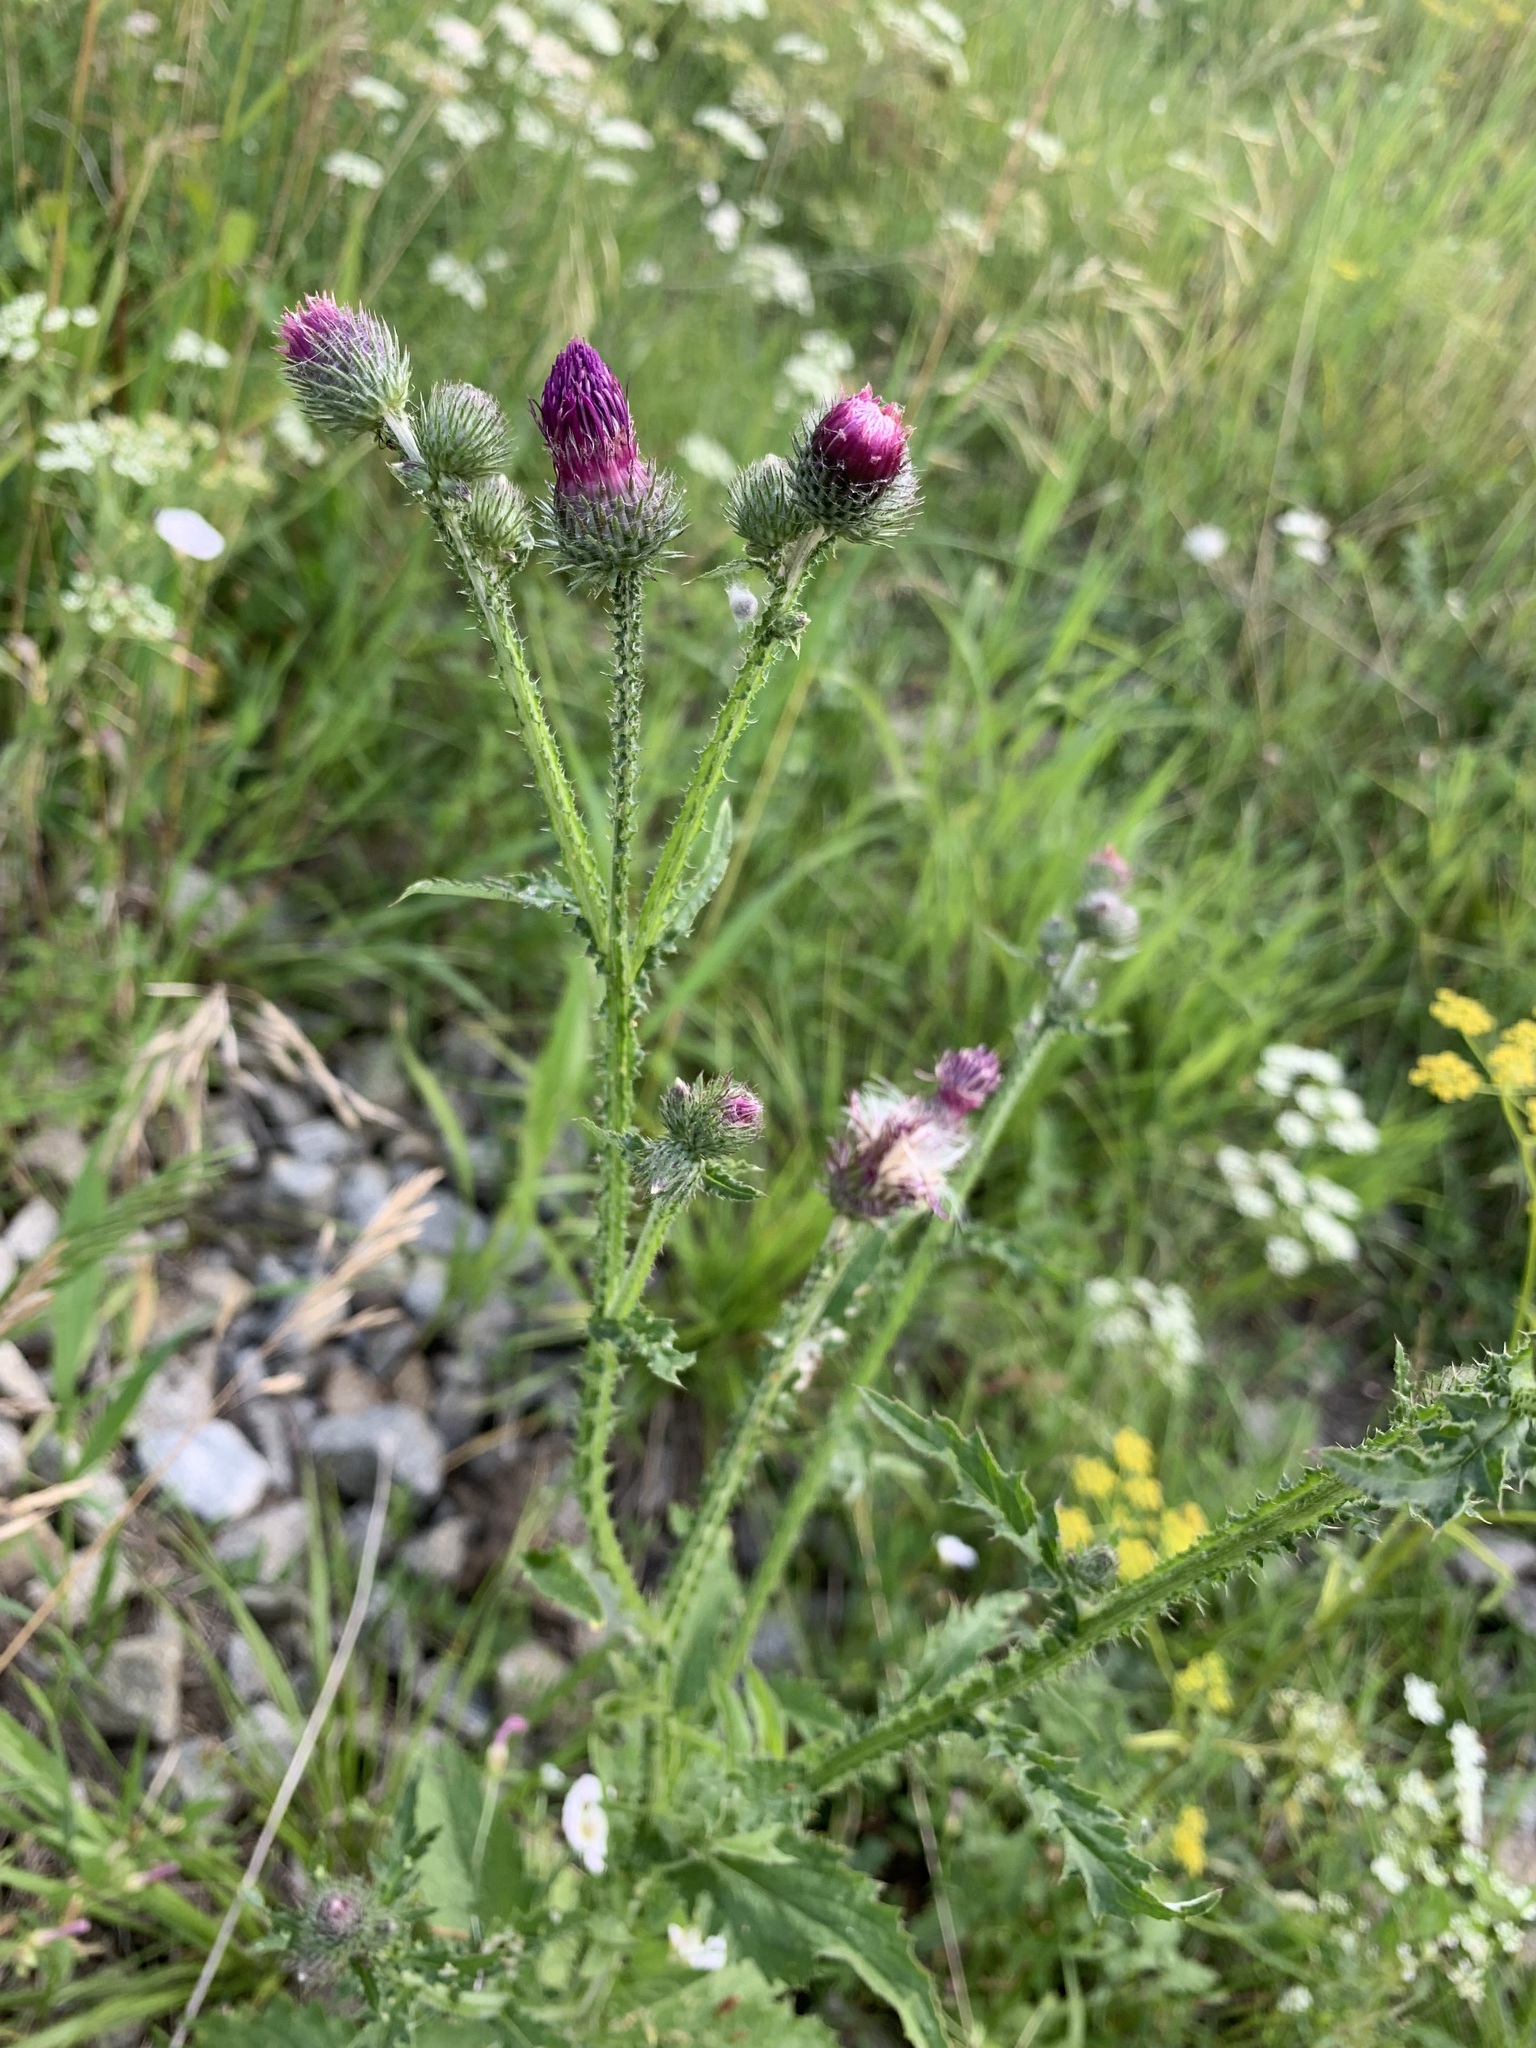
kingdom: Plantae
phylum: Tracheophyta
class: Magnoliopsida
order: Asterales
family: Asteraceae
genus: Carduus
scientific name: Carduus crispus
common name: Welted thistle
